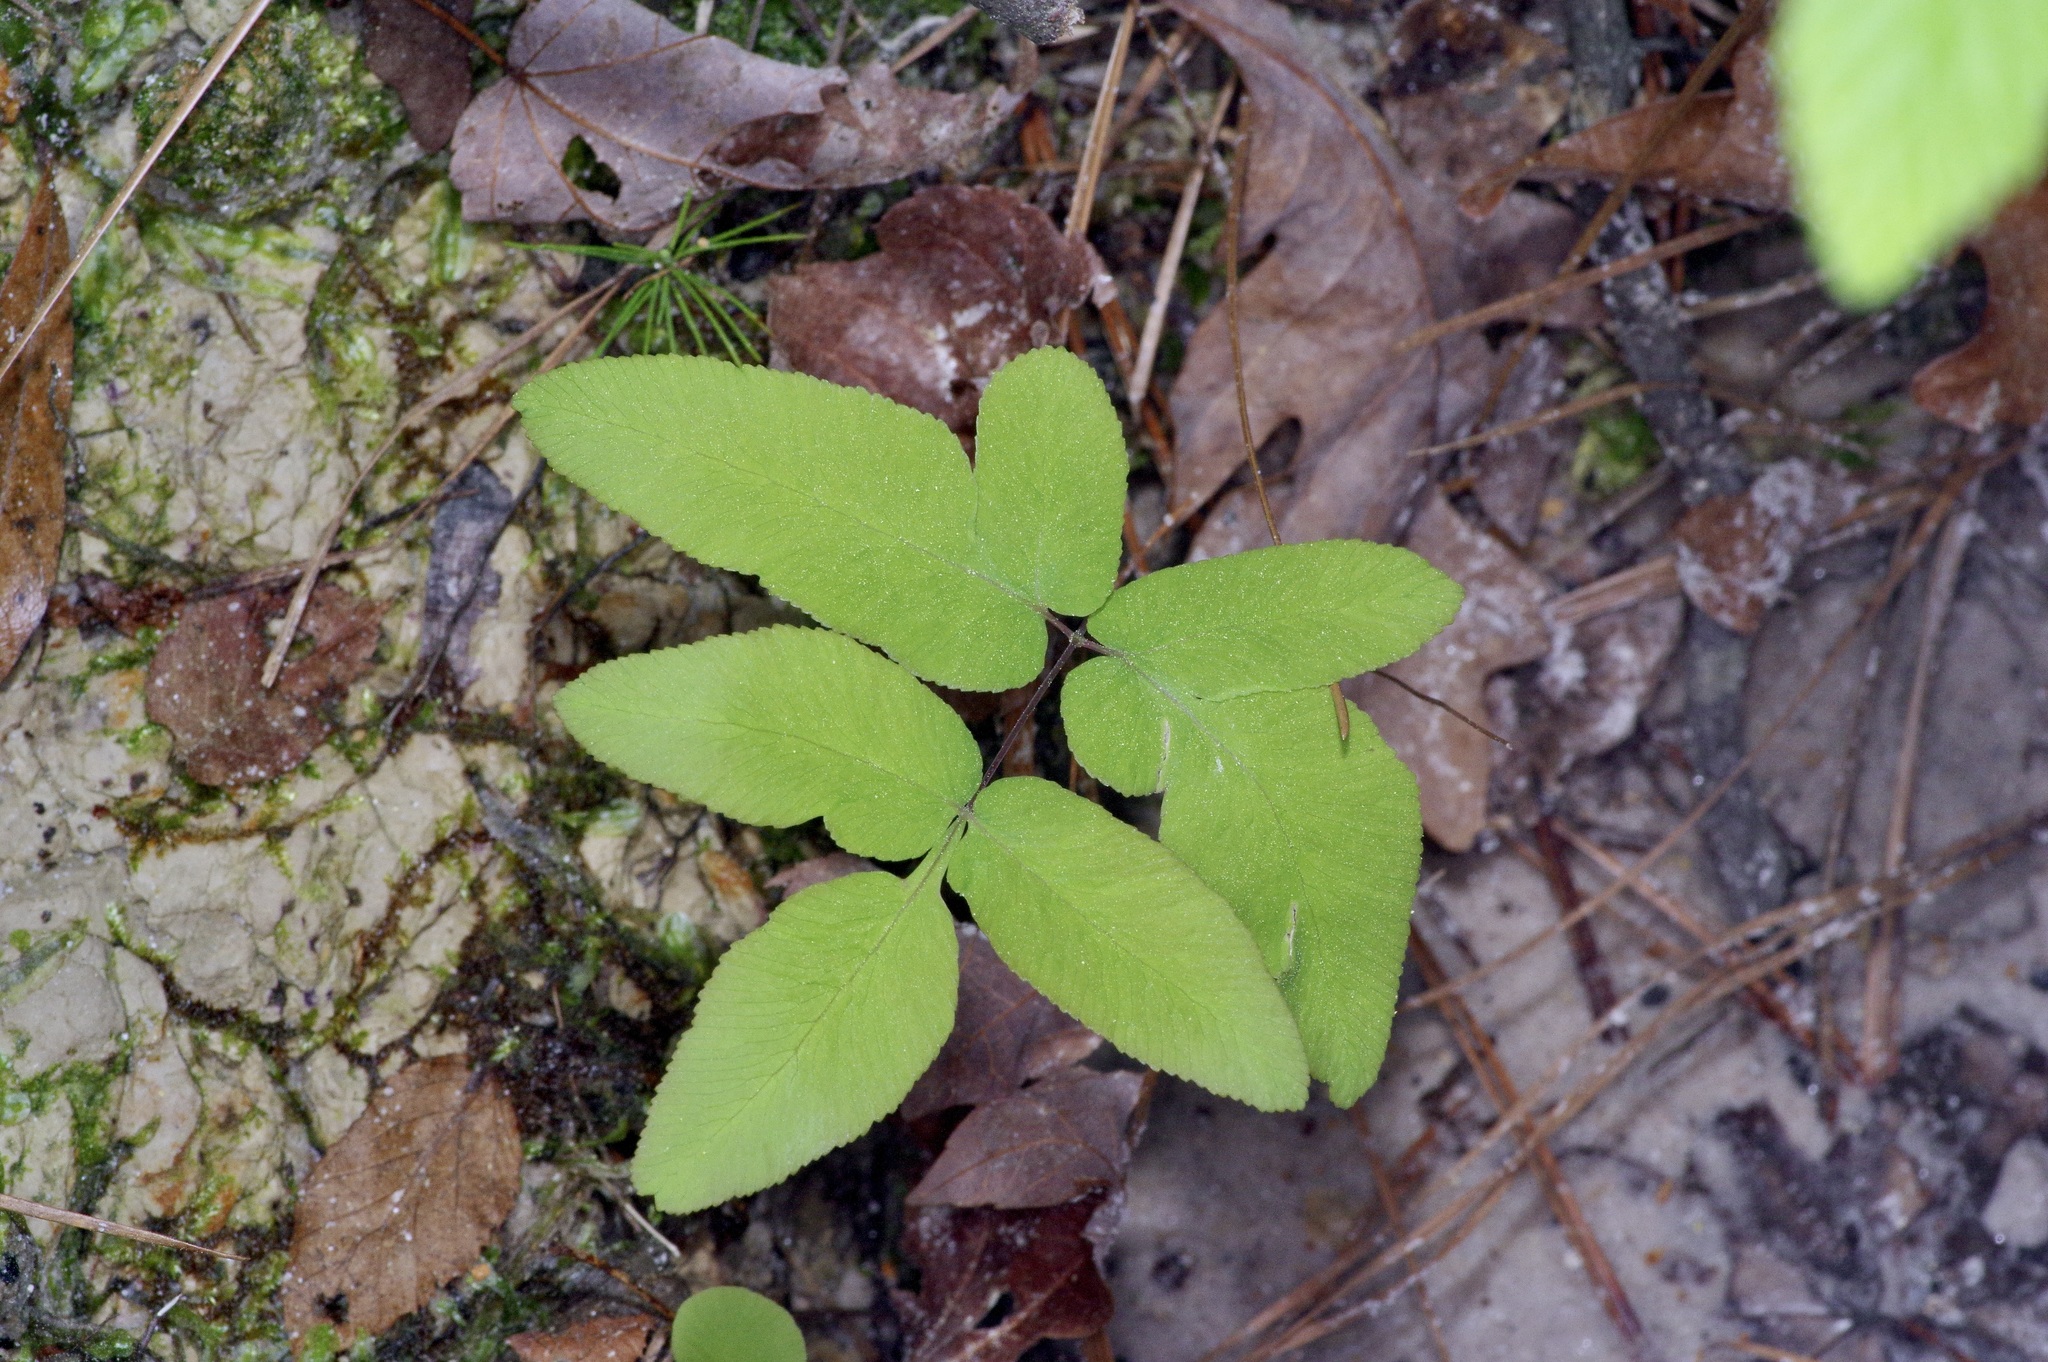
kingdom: Plantae
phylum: Tracheophyta
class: Polypodiopsida
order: Osmundales
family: Osmundaceae
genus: Osmunda
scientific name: Osmunda spectabilis
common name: American royal fern
